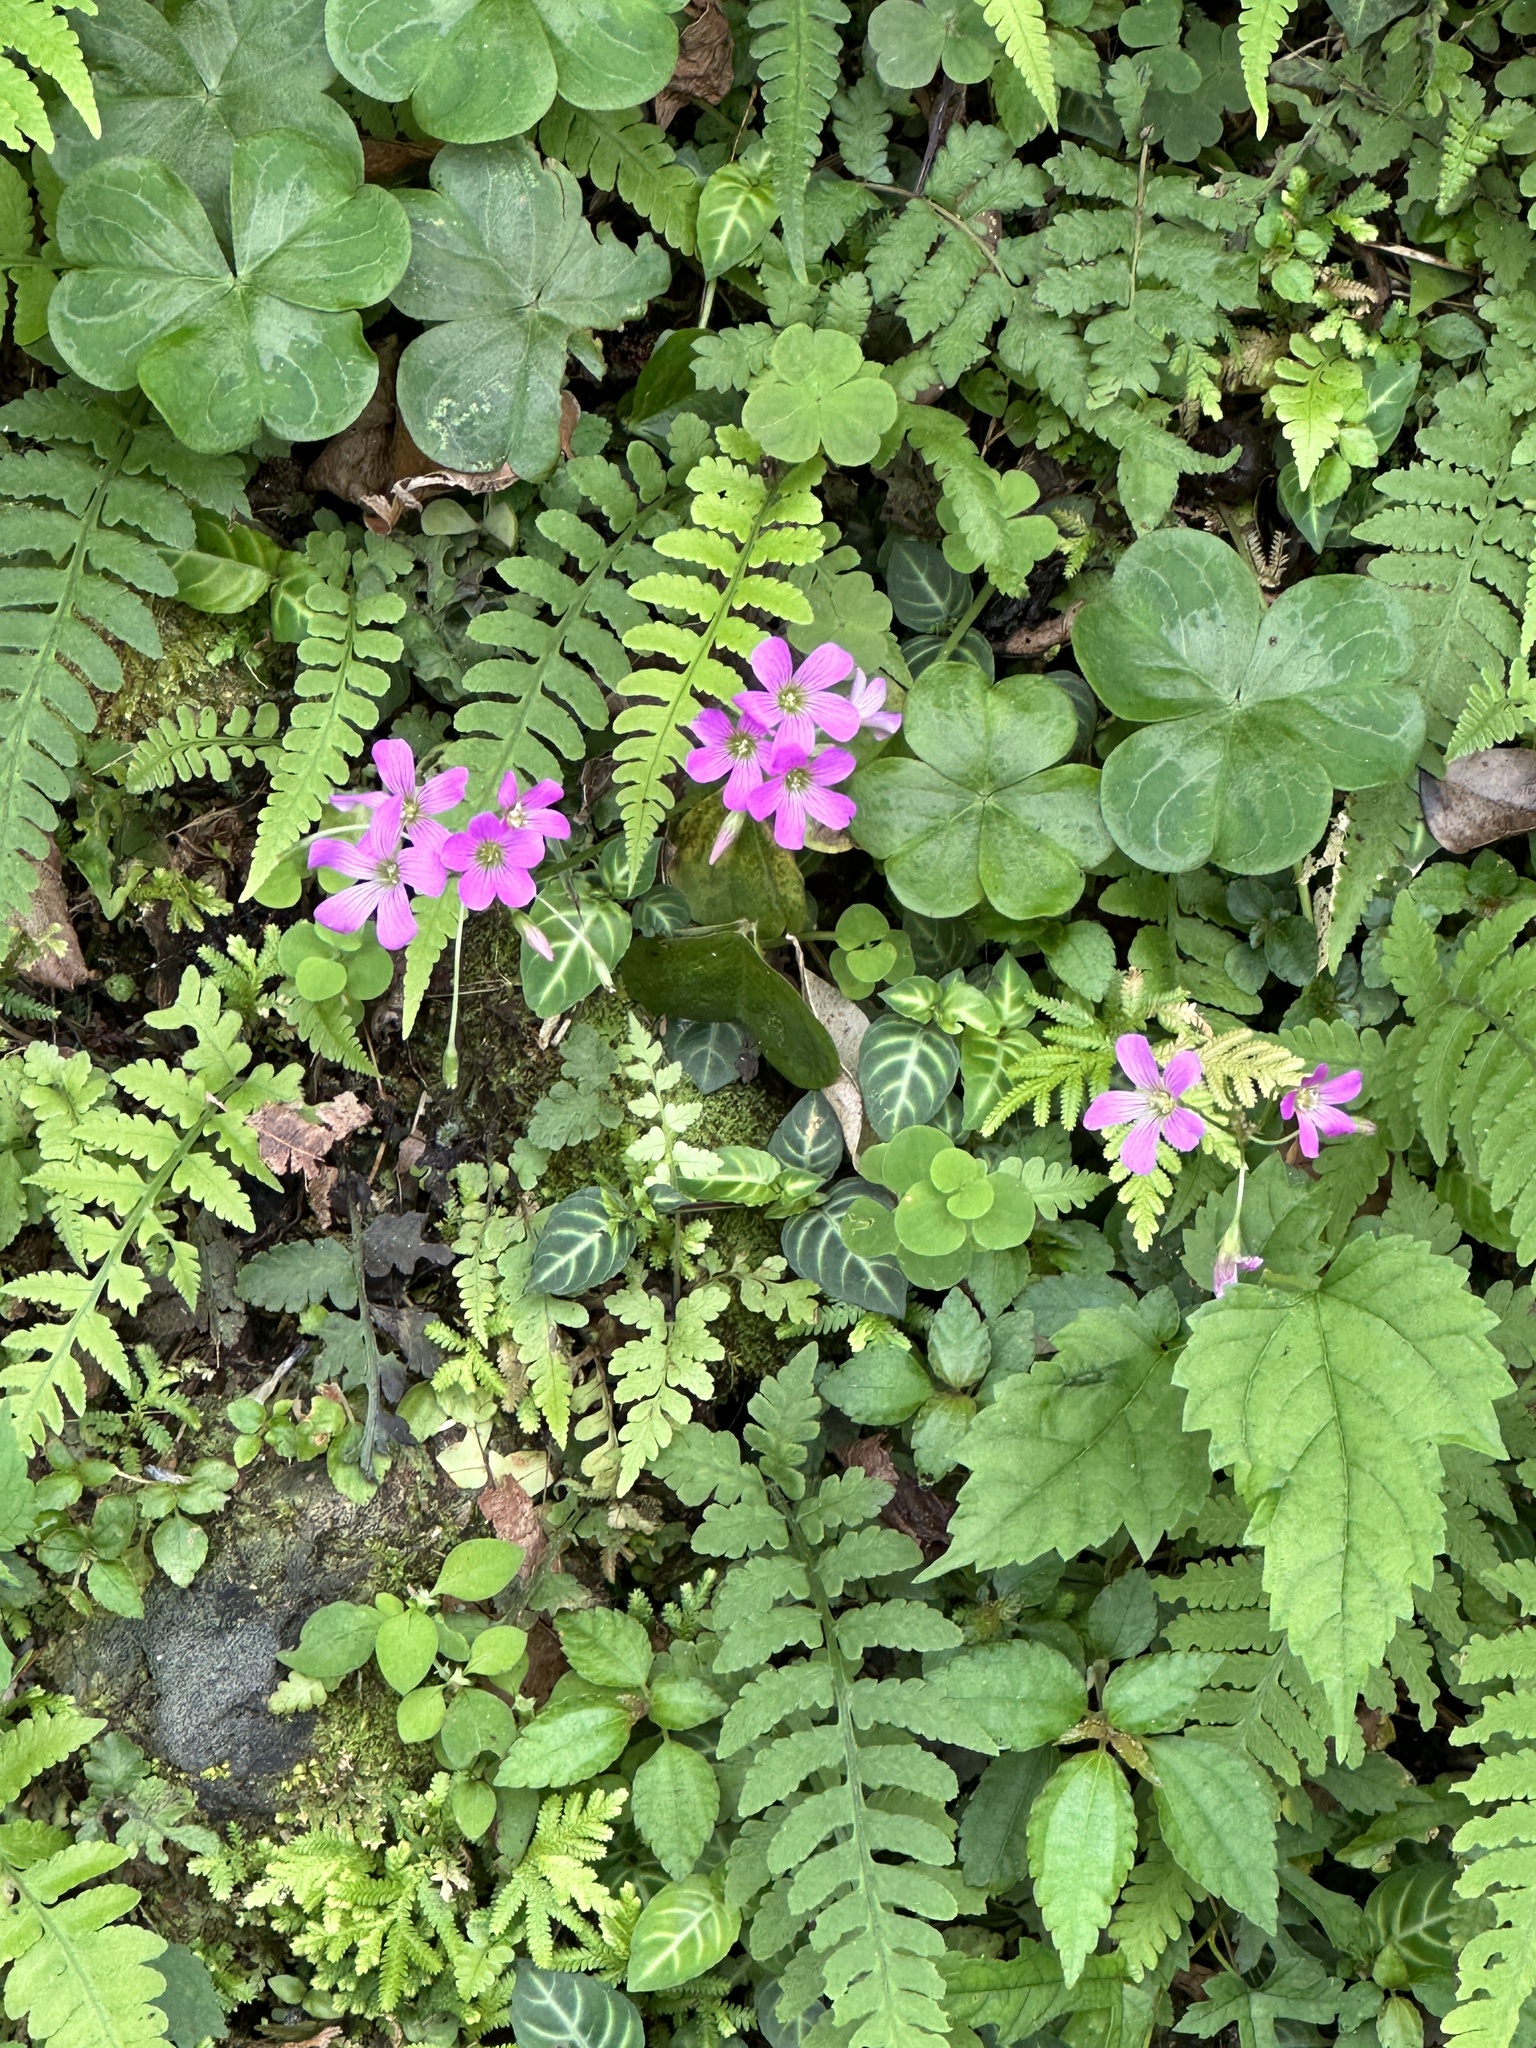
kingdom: Plantae
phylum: Tracheophyta
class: Magnoliopsida
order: Oxalidales
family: Oxalidaceae
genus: Oxalis
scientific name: Oxalis debilis
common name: Large-flowered pink-sorrel
